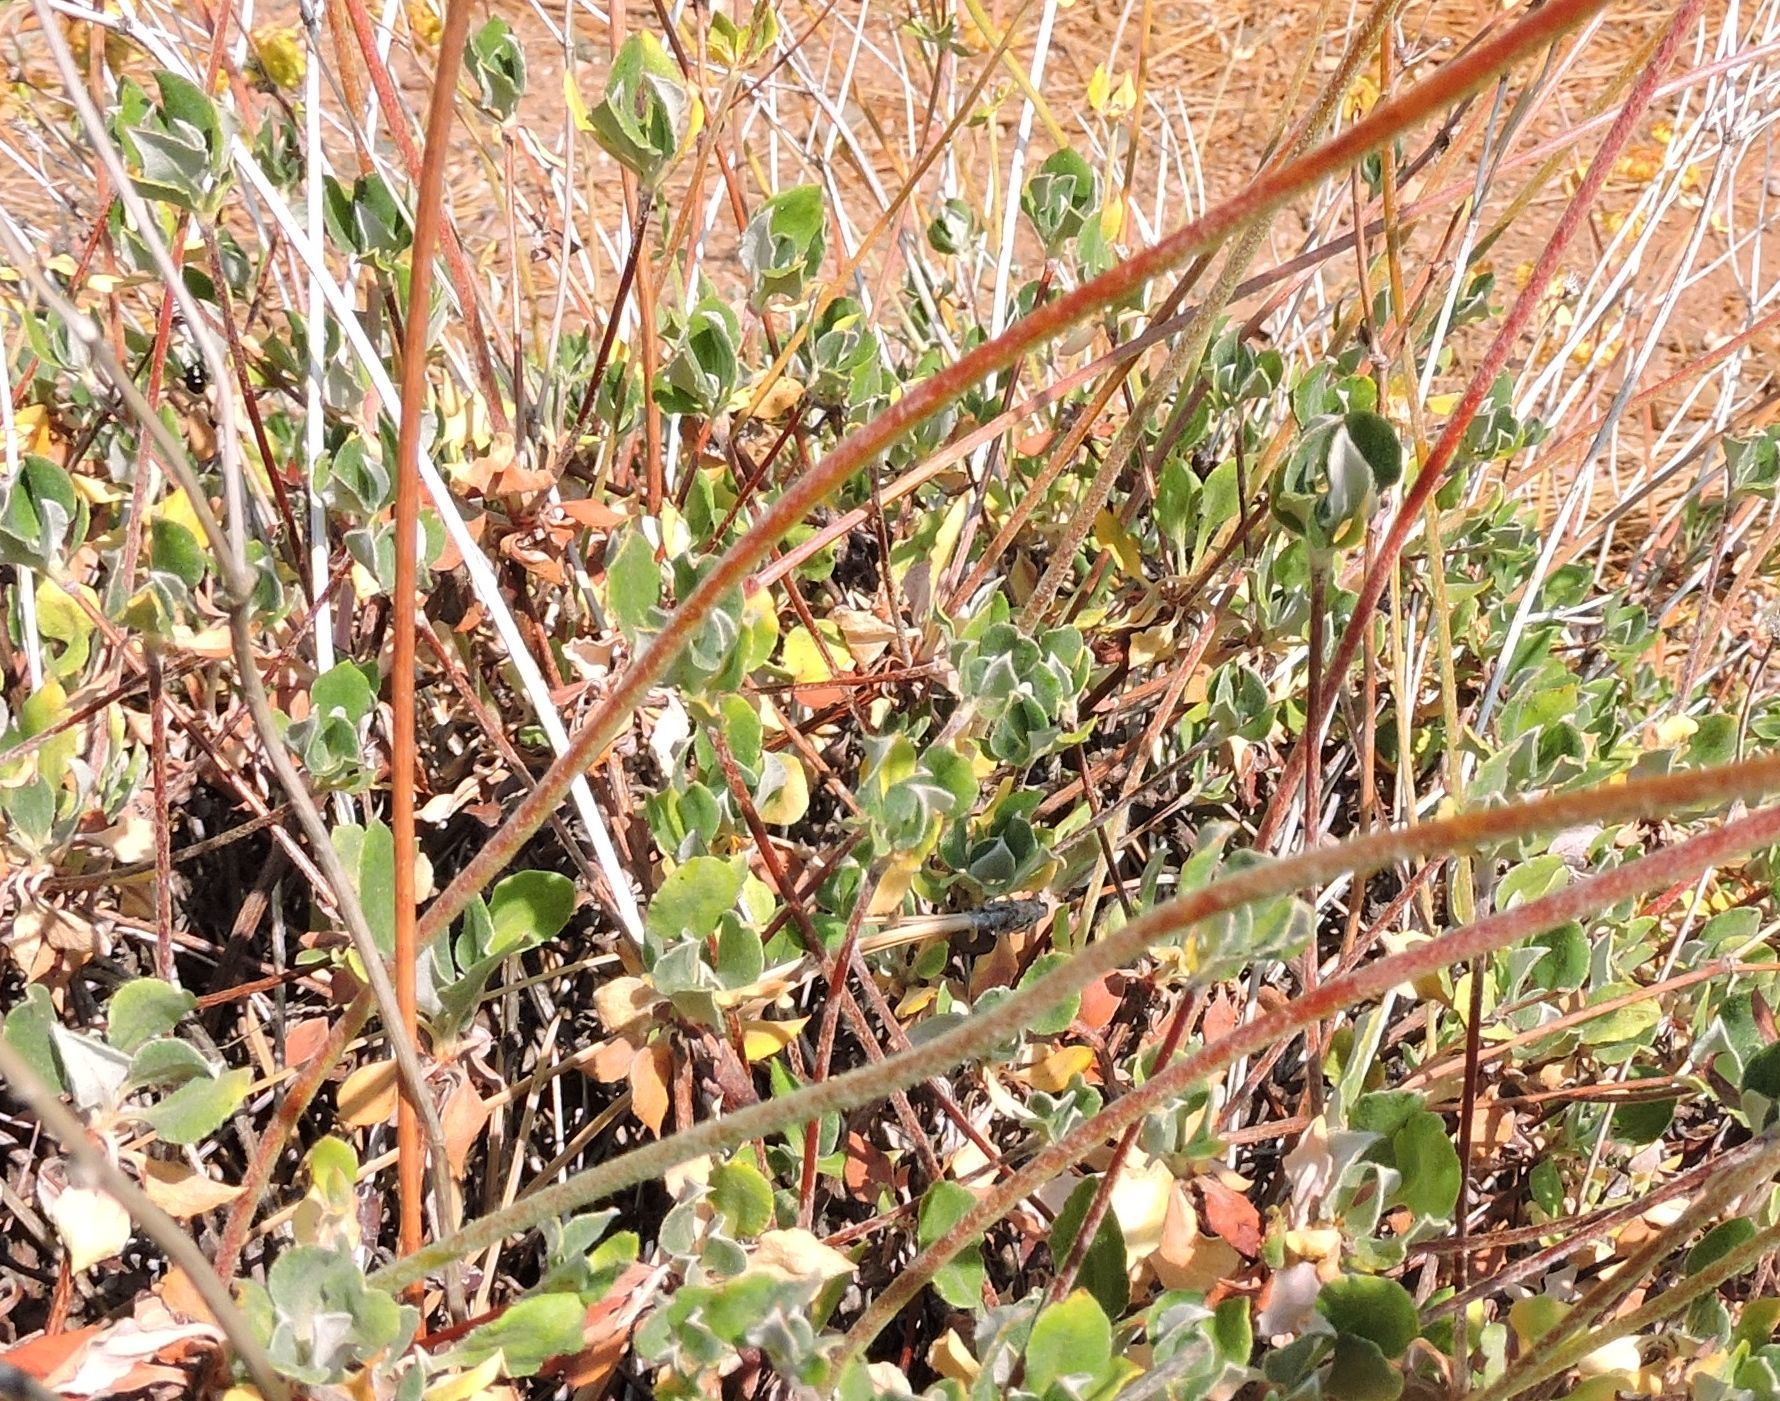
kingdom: Plantae
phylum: Tracheophyta
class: Magnoliopsida
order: Caryophyllales
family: Polygonaceae
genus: Eriogonum
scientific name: Eriogonum umbellatum
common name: Sulfur-buckwheat
